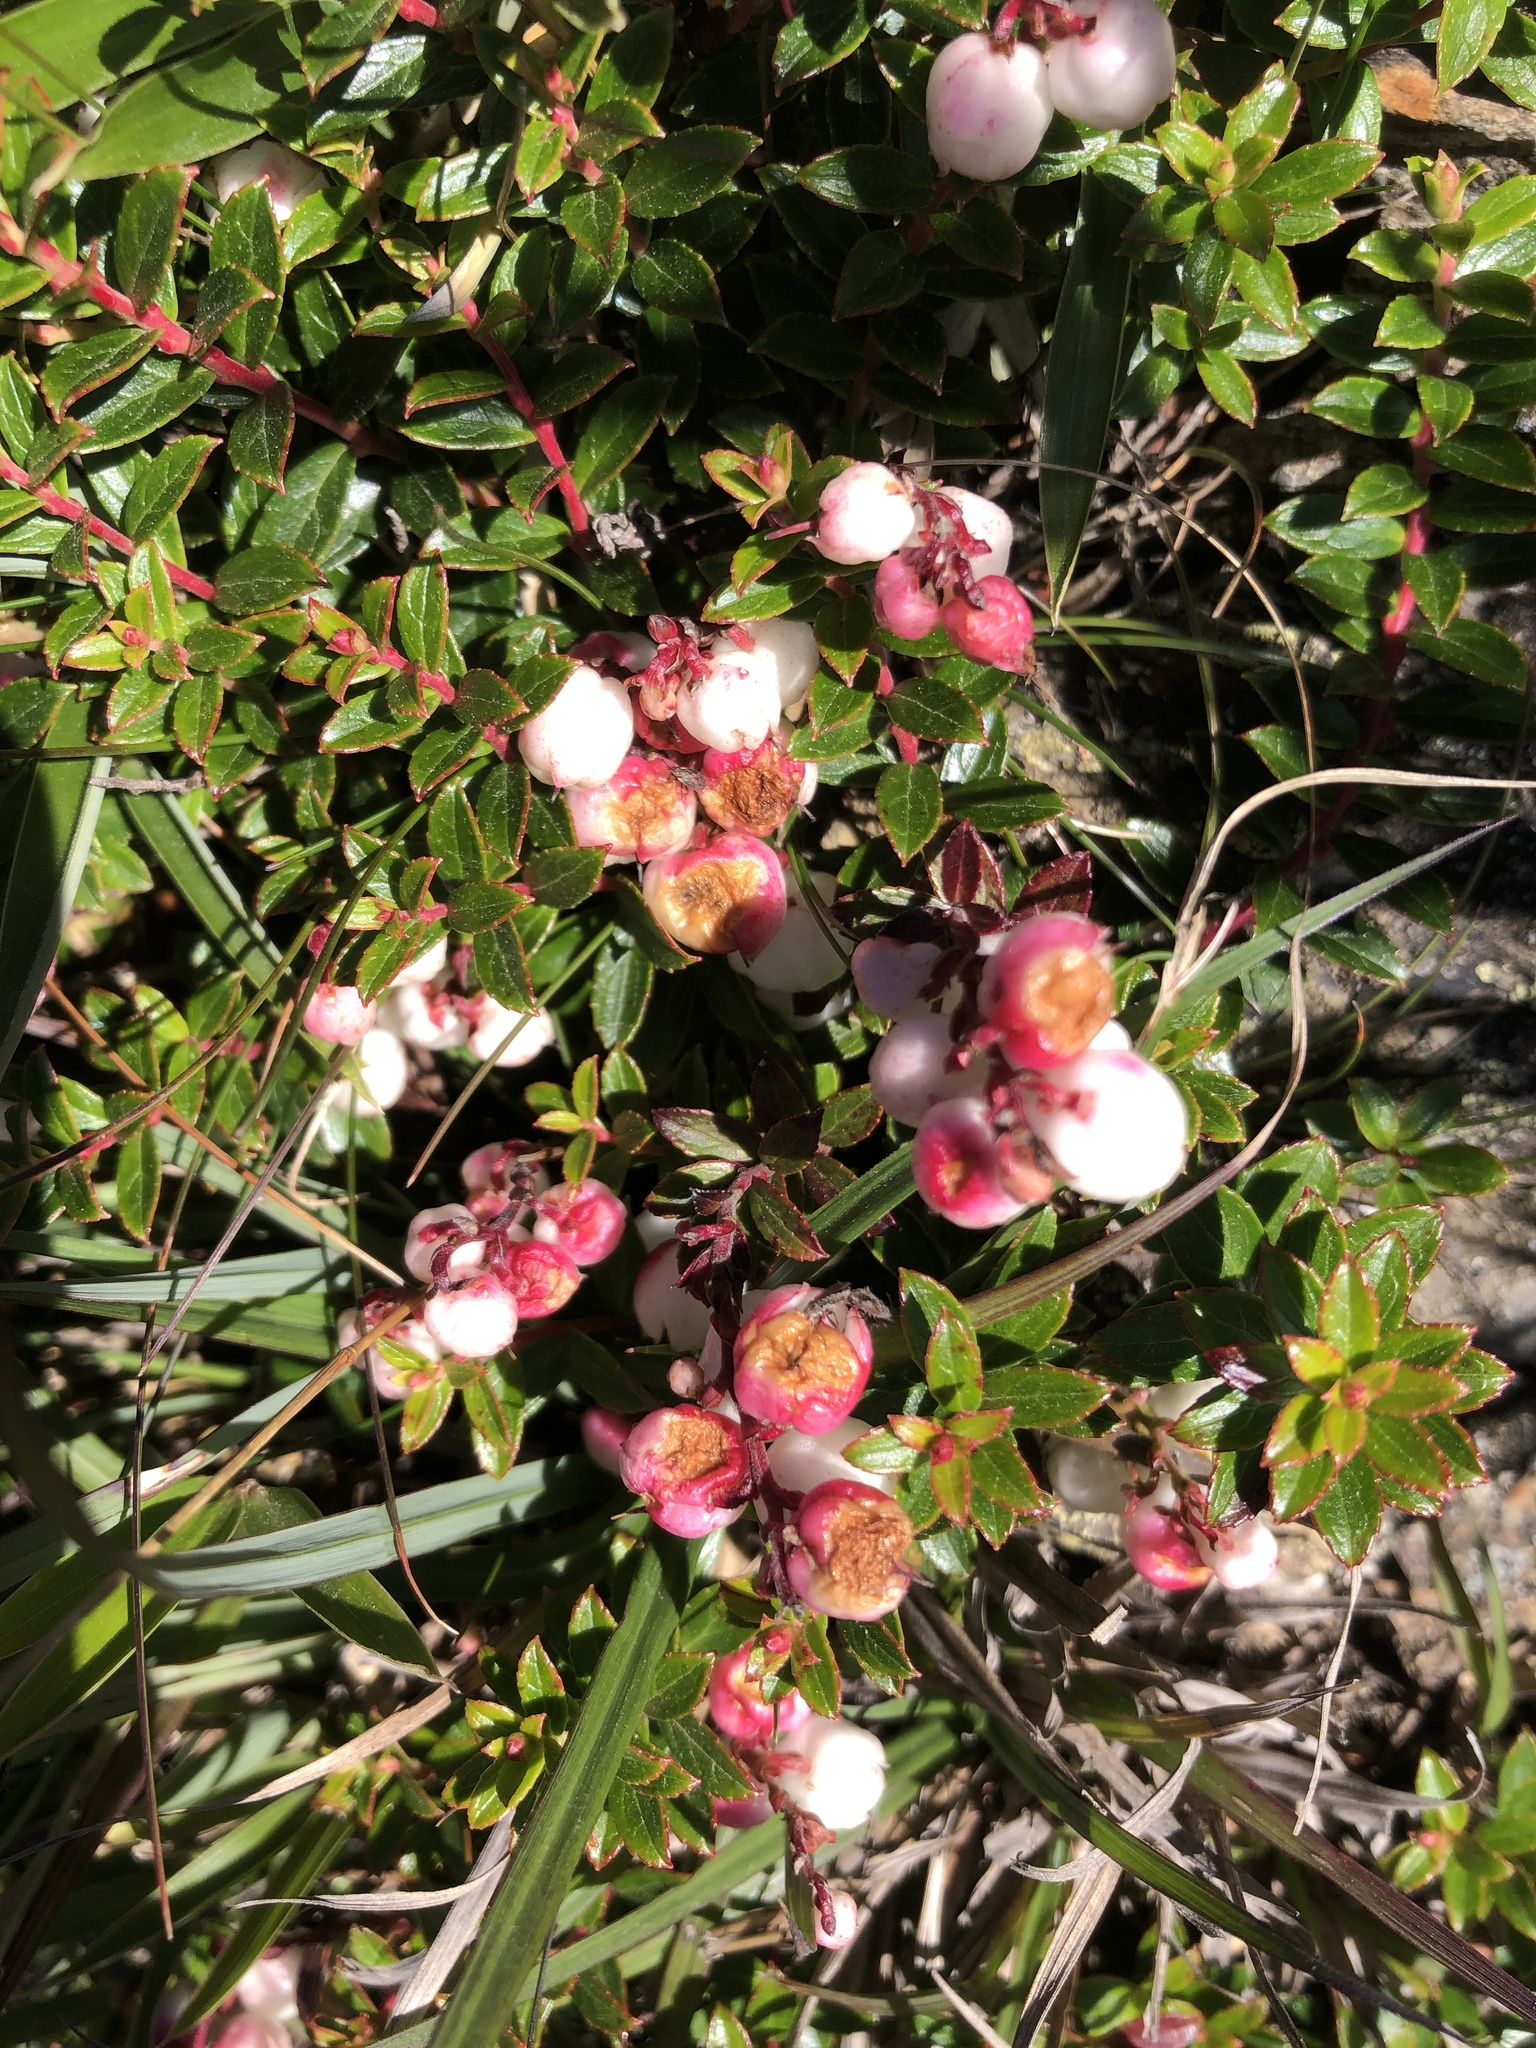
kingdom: Plantae
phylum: Tracheophyta
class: Magnoliopsida
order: Ericales
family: Ericaceae
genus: Gaultheria
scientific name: Gaultheria borneensis
